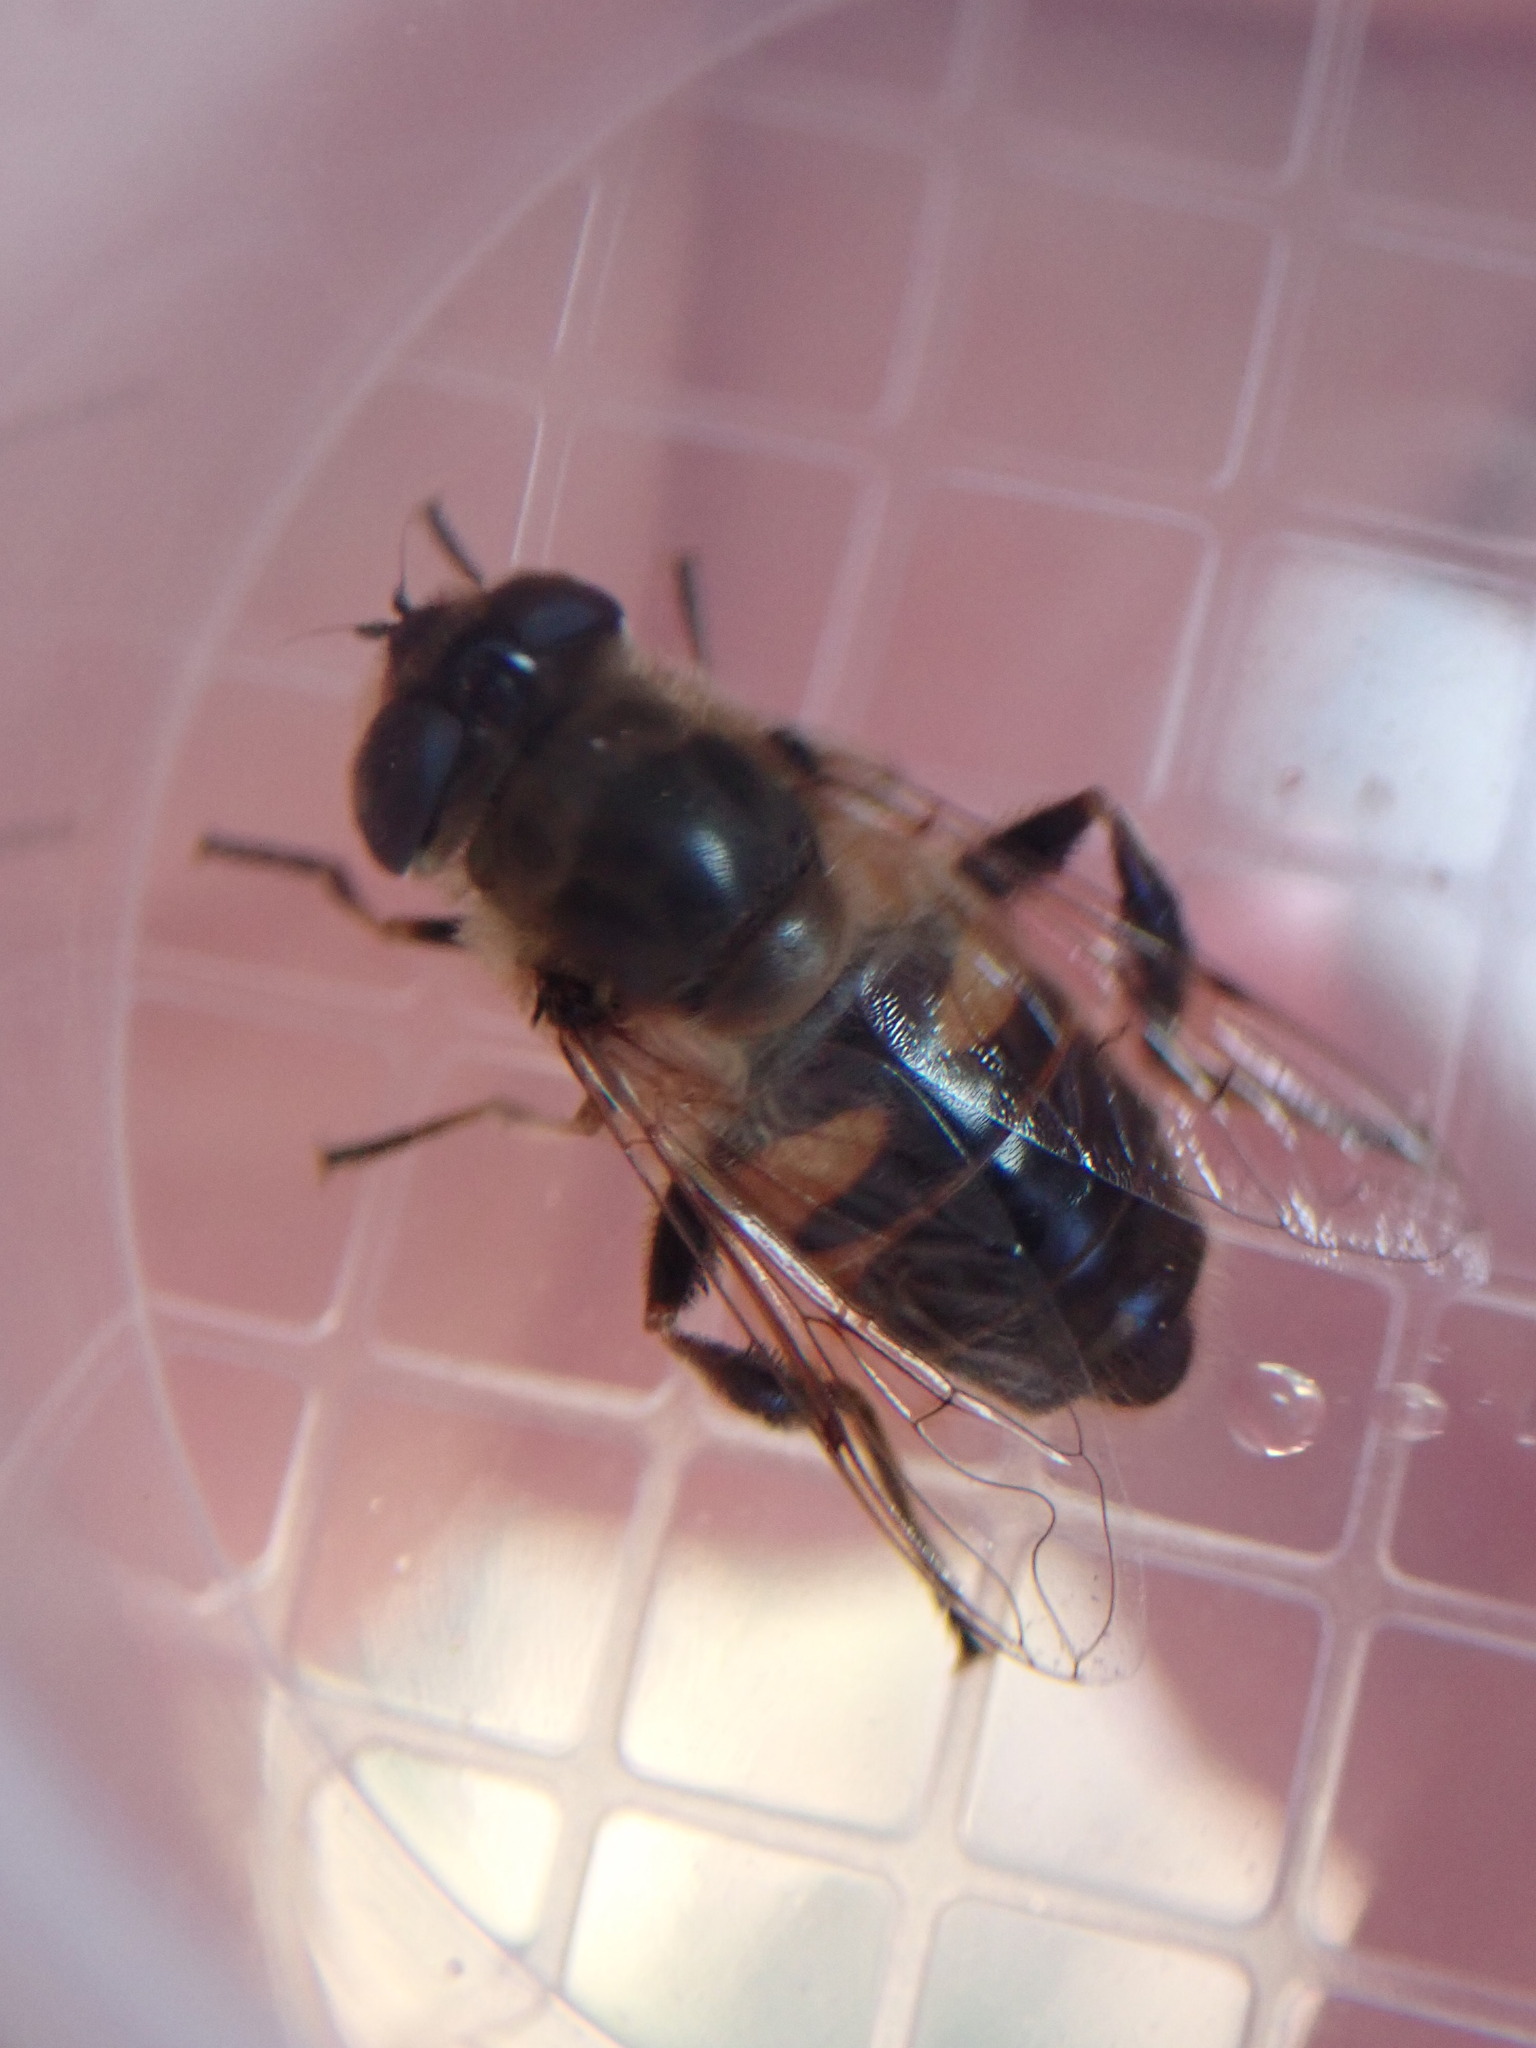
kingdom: Animalia
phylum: Arthropoda
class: Insecta
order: Diptera
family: Syrphidae
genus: Eristalis
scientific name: Eristalis tenax
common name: Drone fly
